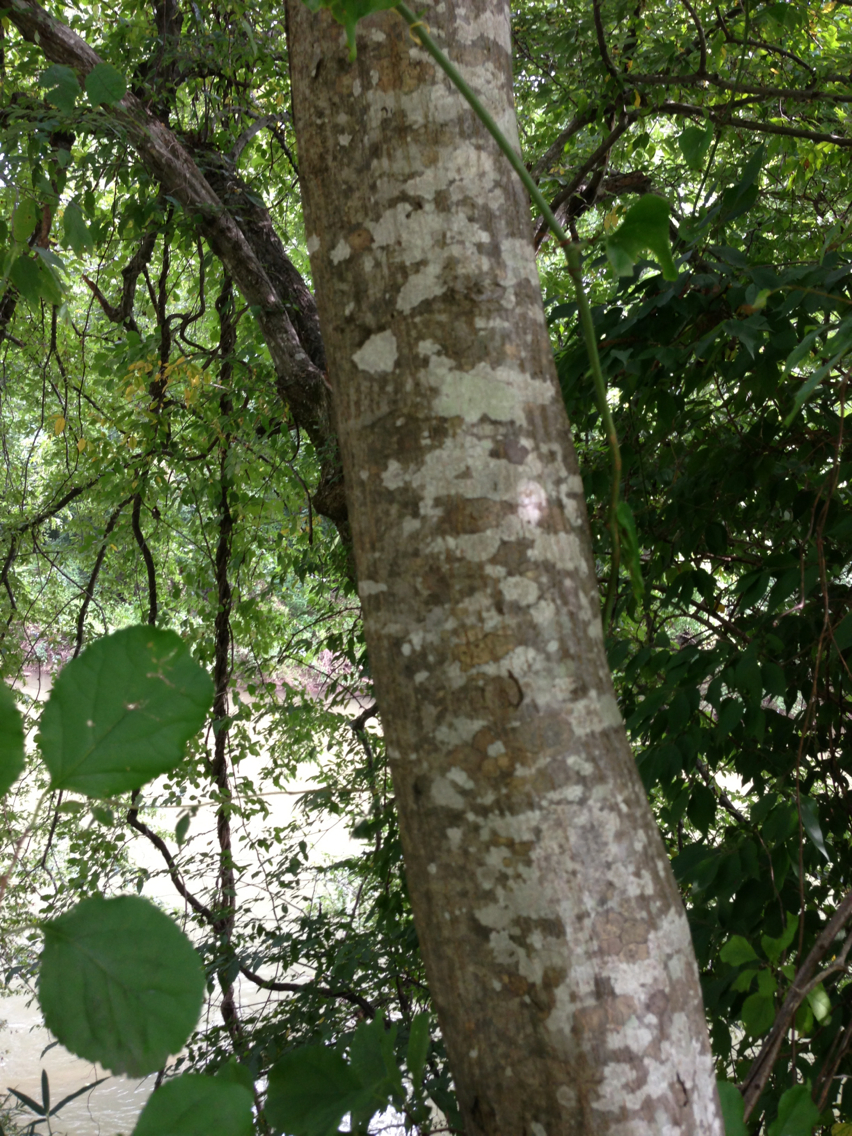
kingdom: Plantae
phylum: Tracheophyta
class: Magnoliopsida
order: Fagales
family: Betulaceae
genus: Carpinus
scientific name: Carpinus caroliniana
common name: American hornbeam
